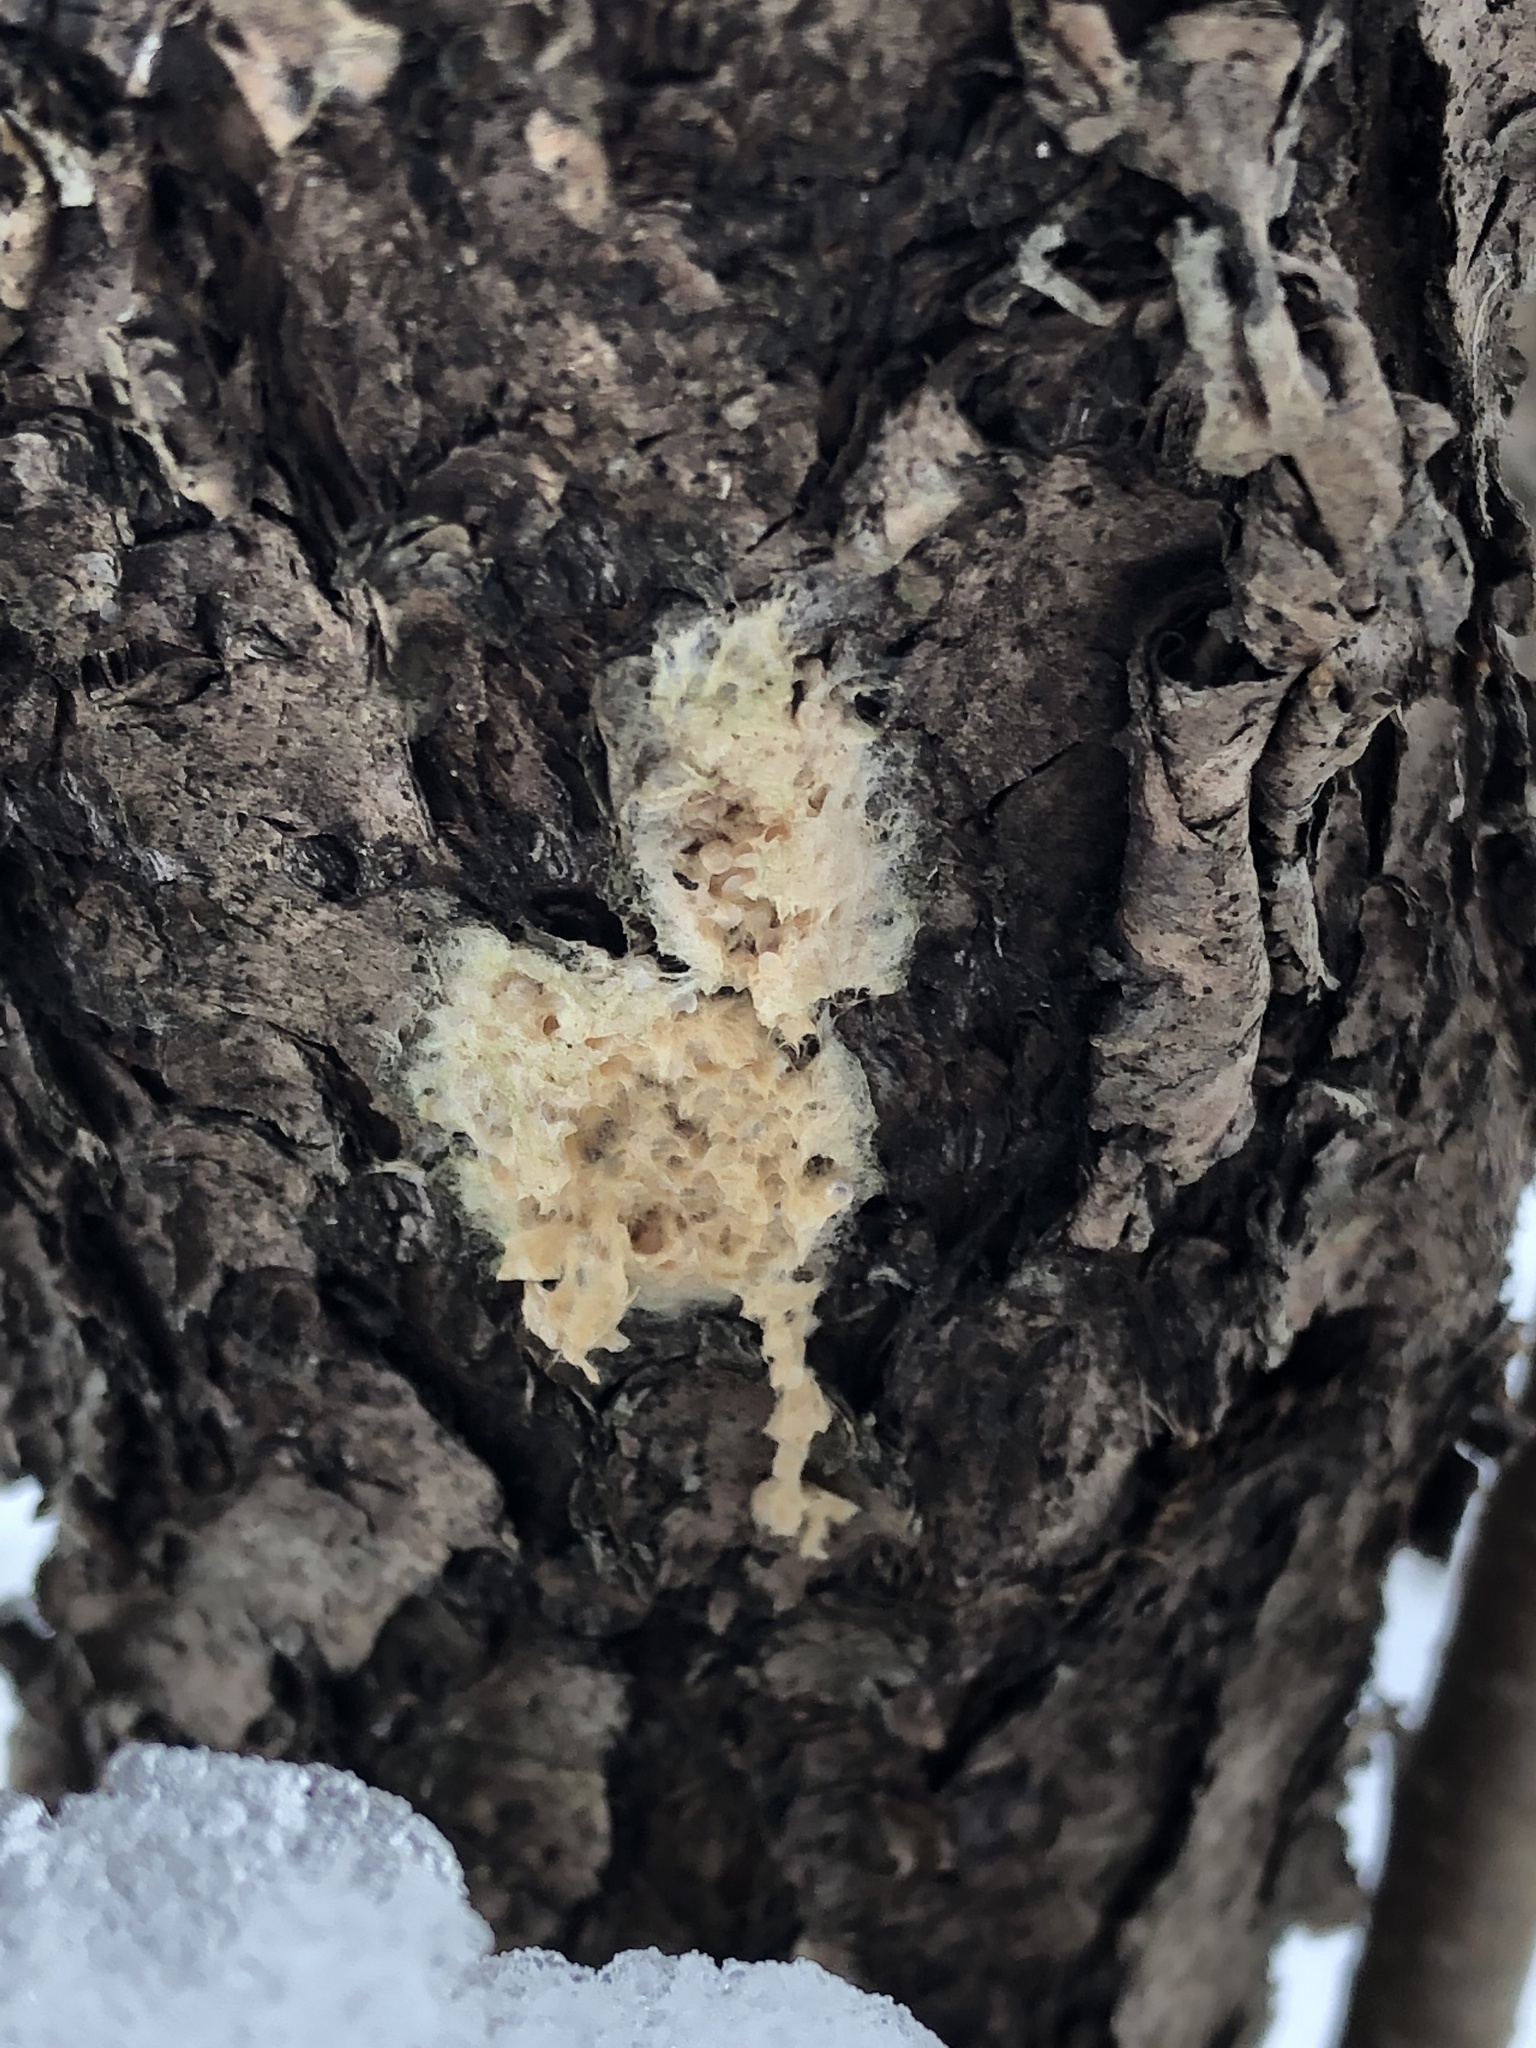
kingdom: Animalia
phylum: Arthropoda
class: Insecta
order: Lepidoptera
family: Erebidae
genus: Lymantria
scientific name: Lymantria dispar
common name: Gypsy moth
